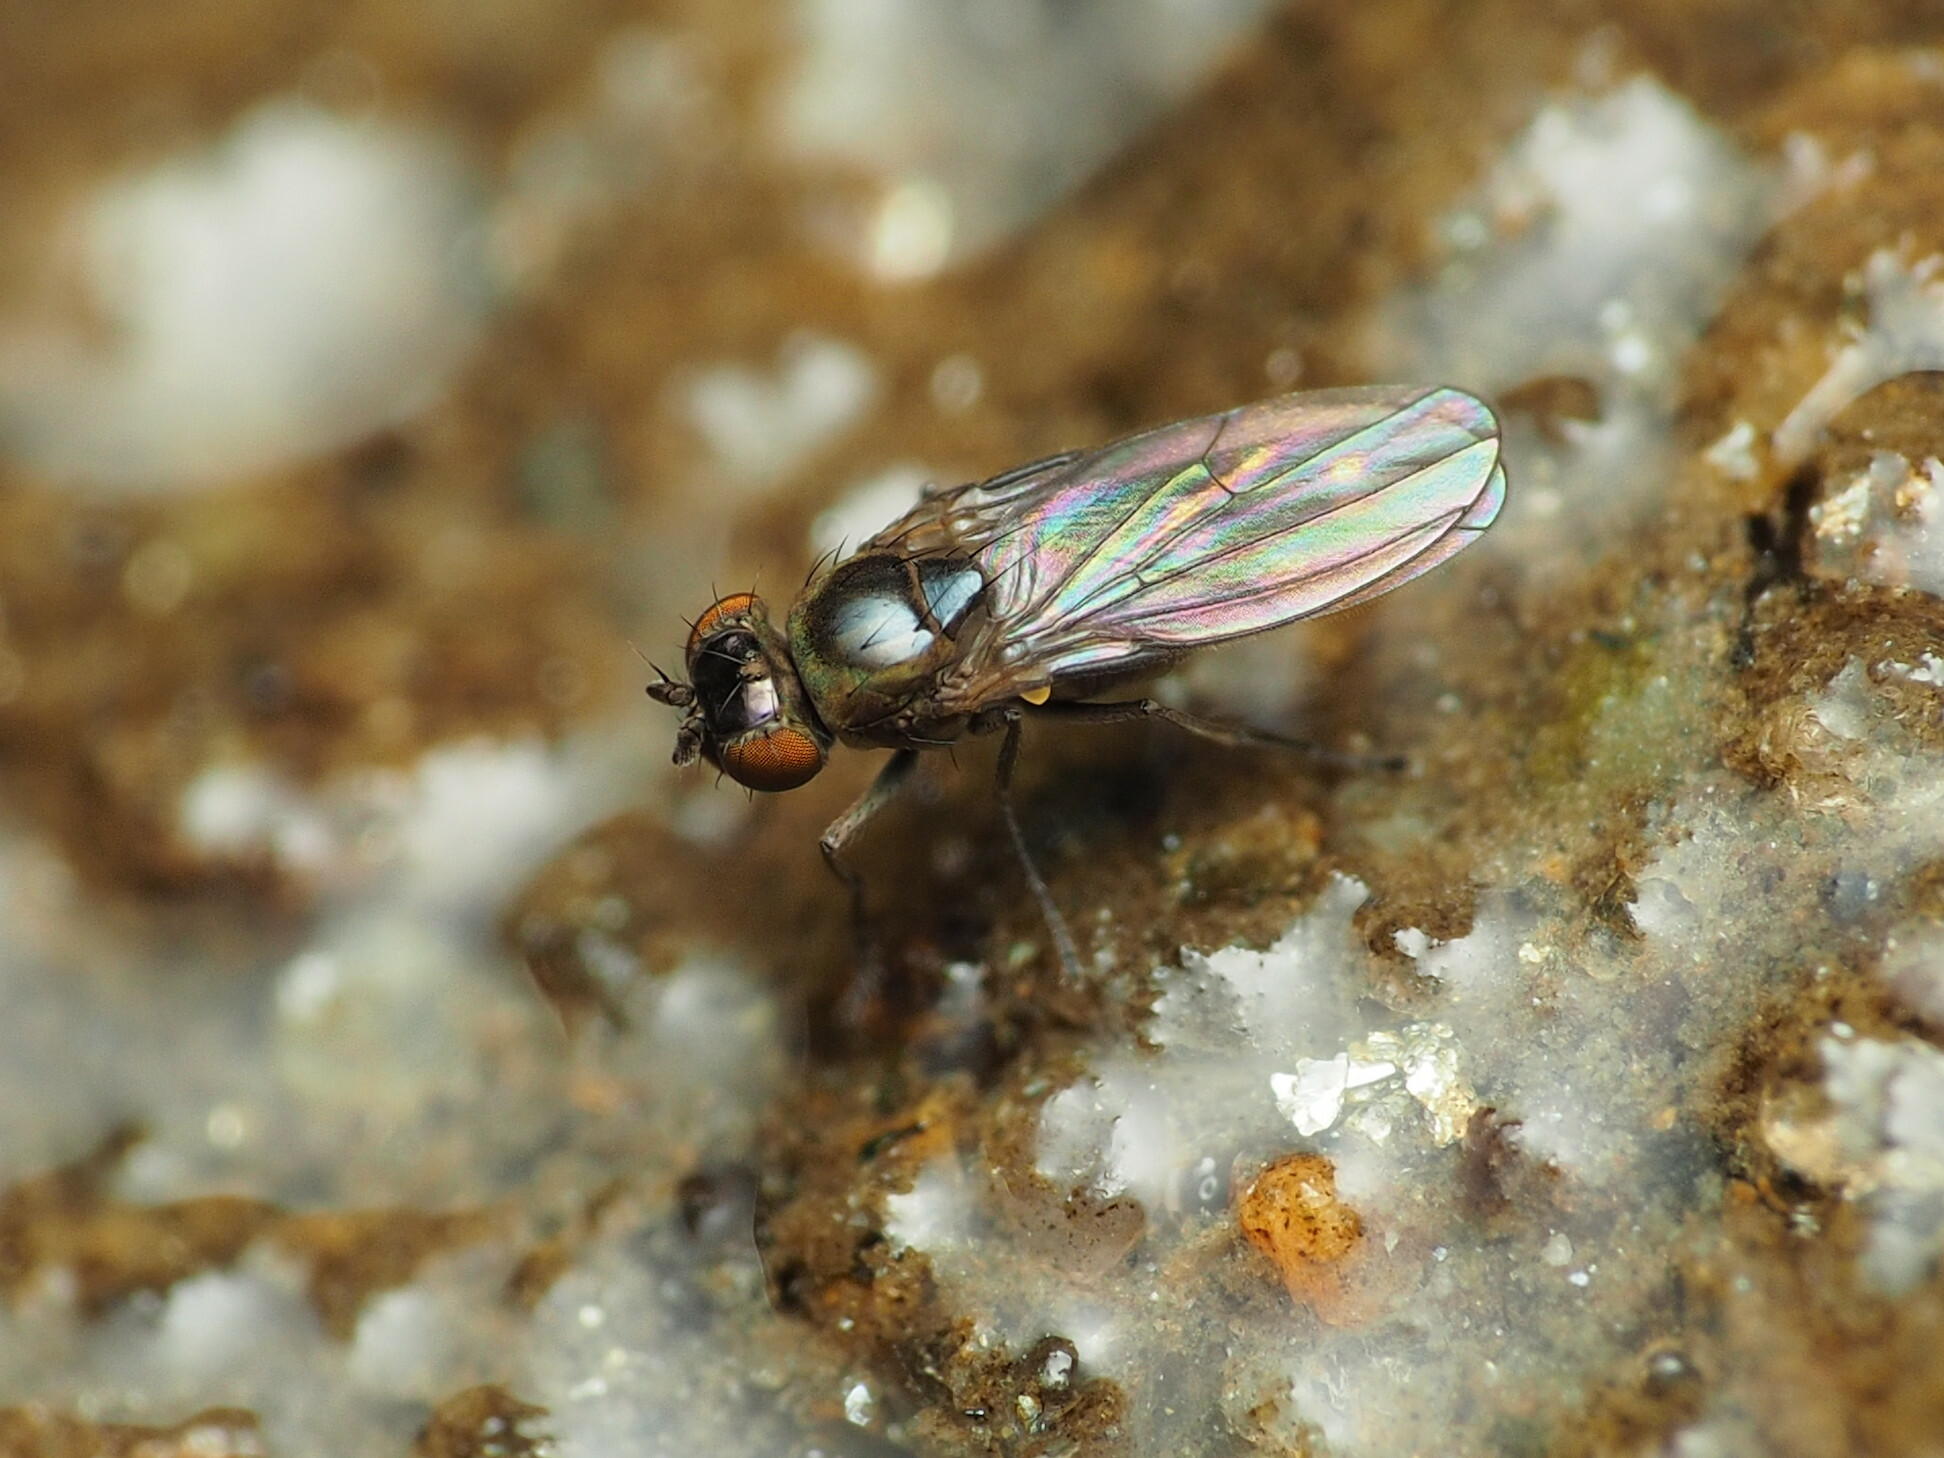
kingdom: Animalia
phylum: Arthropoda
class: Insecta
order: Diptera
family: Ephydridae
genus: Scatella
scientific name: Scatella favillacea
